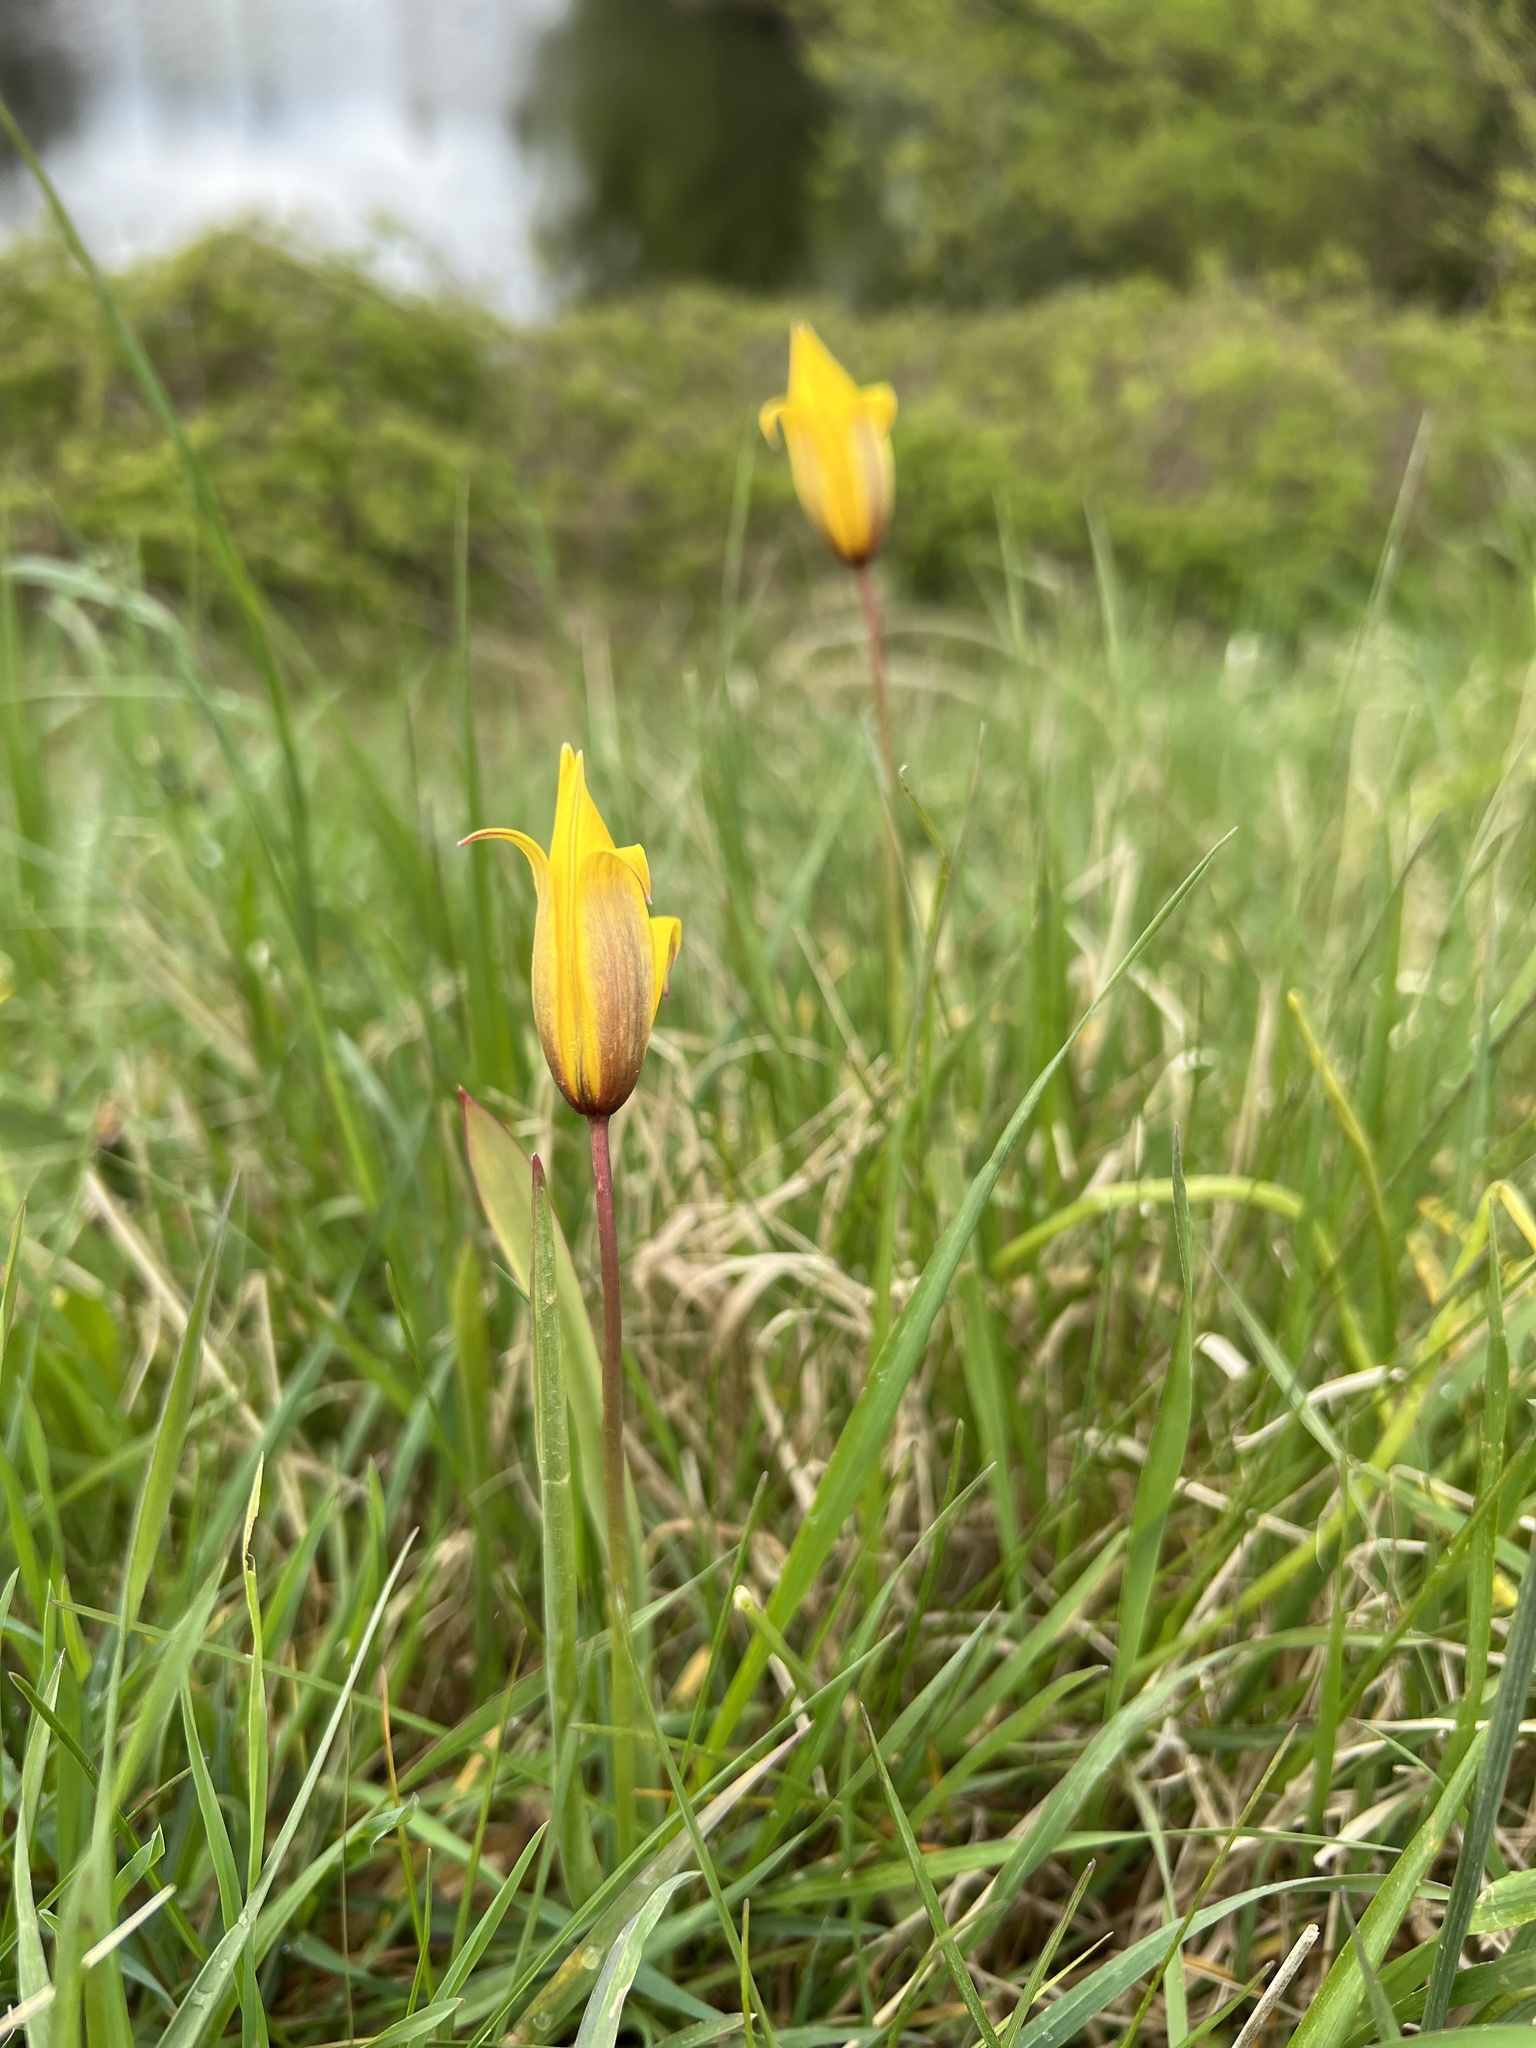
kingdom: Plantae
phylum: Tracheophyta
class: Liliopsida
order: Liliales
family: Liliaceae
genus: Tulipa
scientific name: Tulipa sylvestris
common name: Wild tulip
